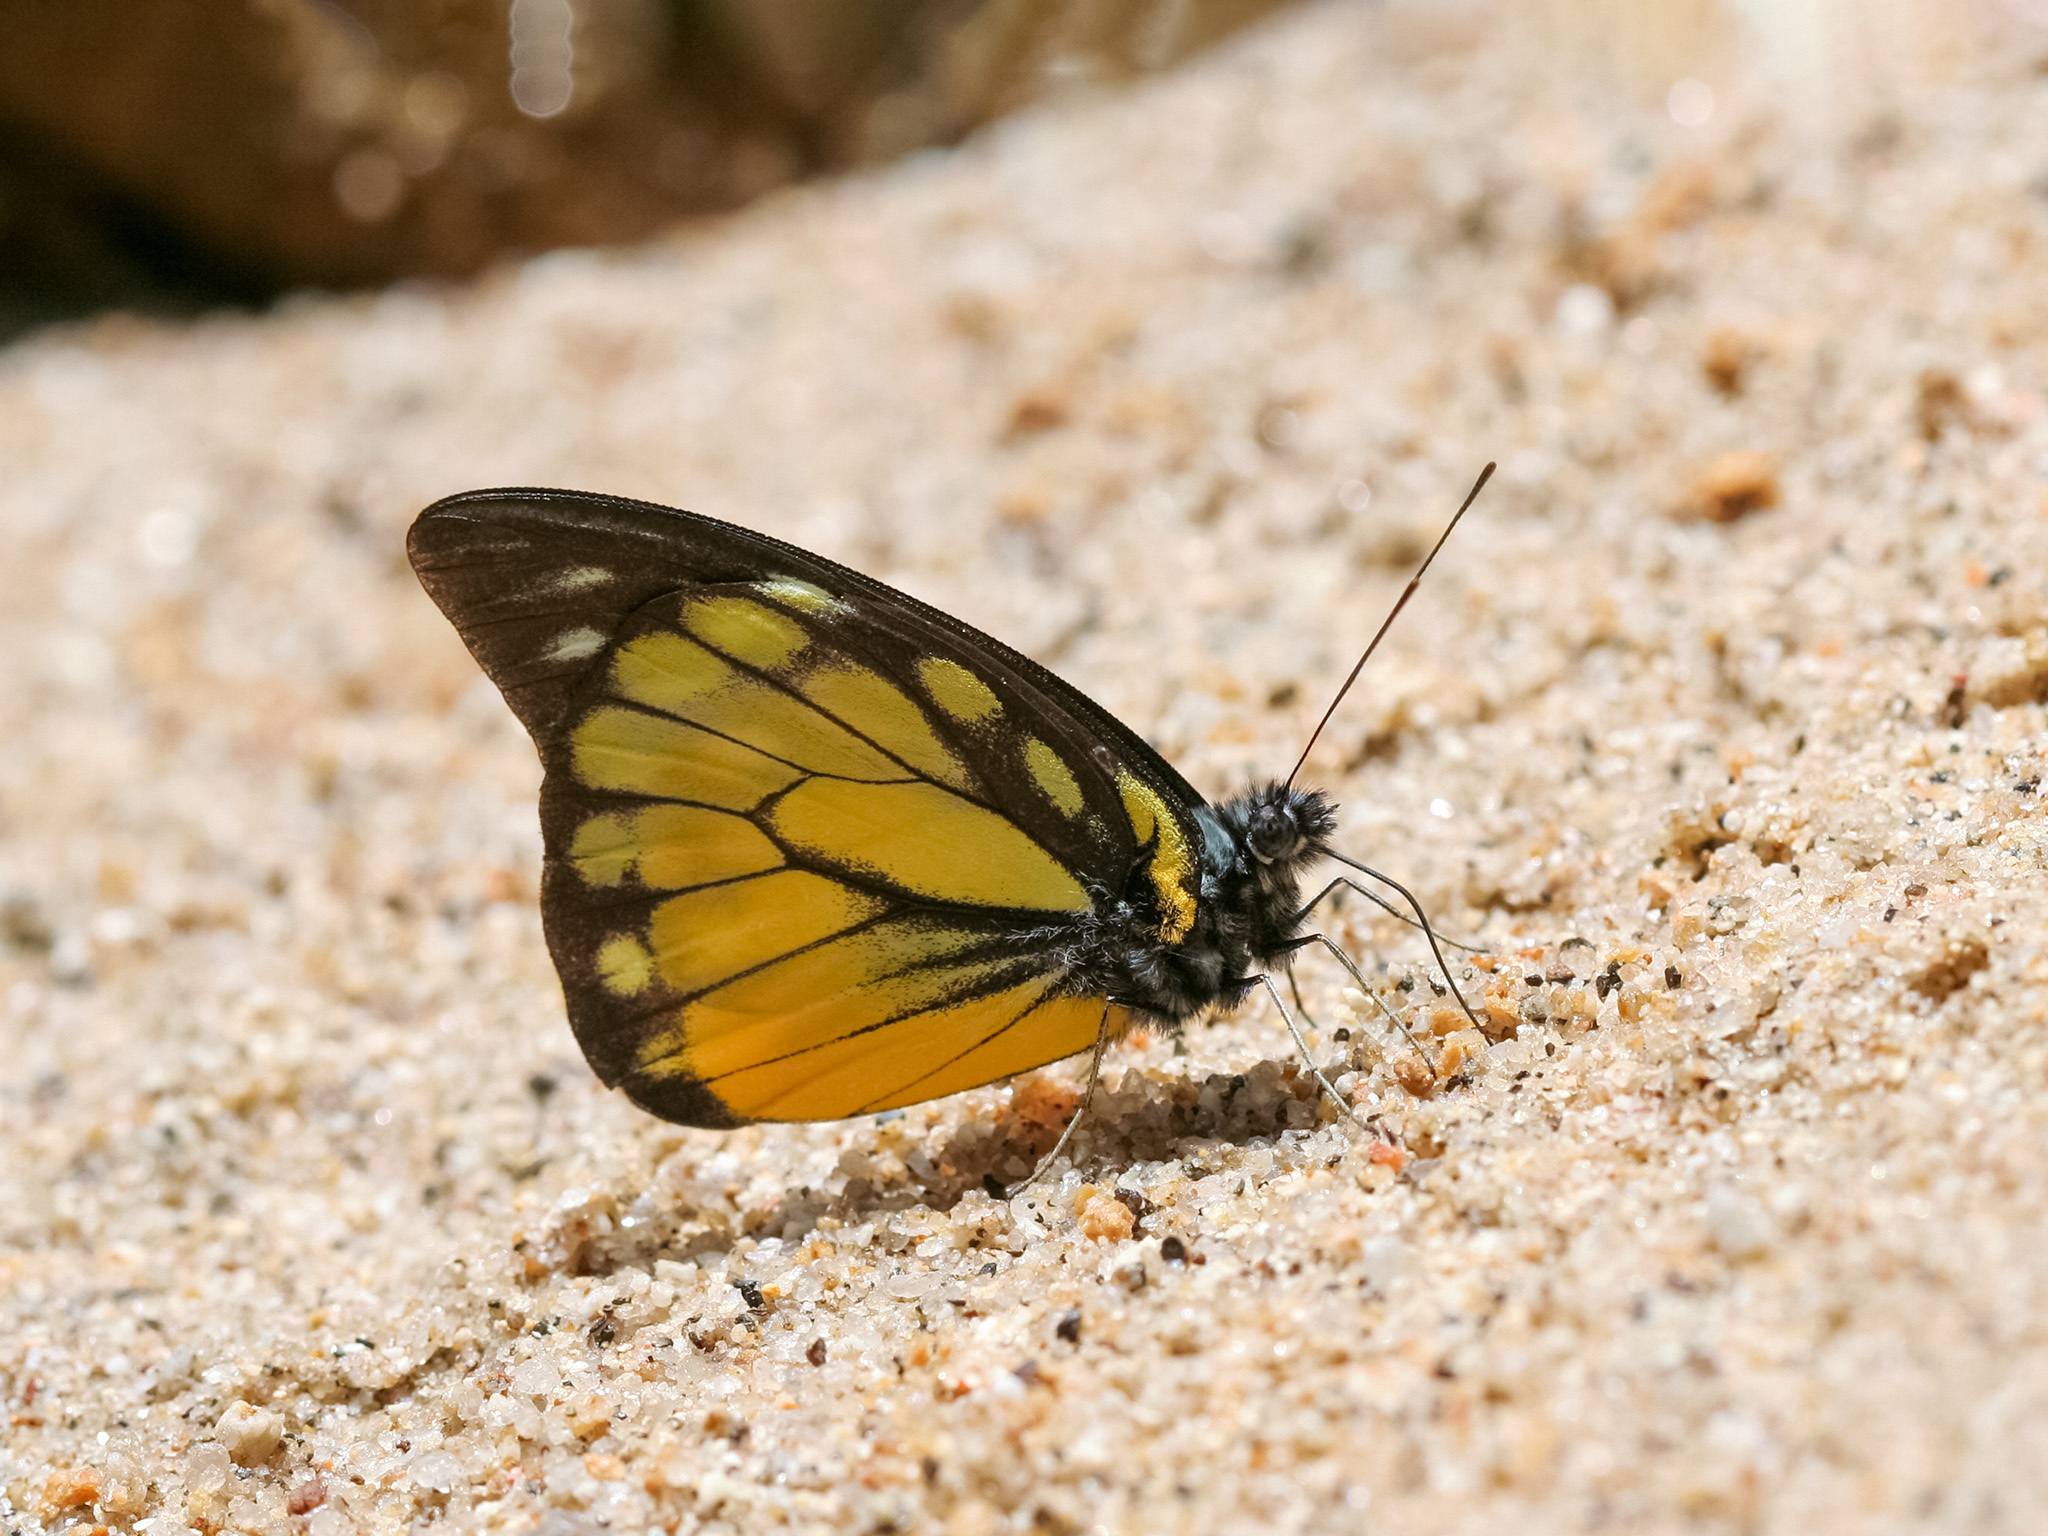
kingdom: Animalia
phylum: Arthropoda
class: Insecta
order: Lepidoptera
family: Pieridae
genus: Prioneris
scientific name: Prioneris thestylis
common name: Spotted sawtooth
